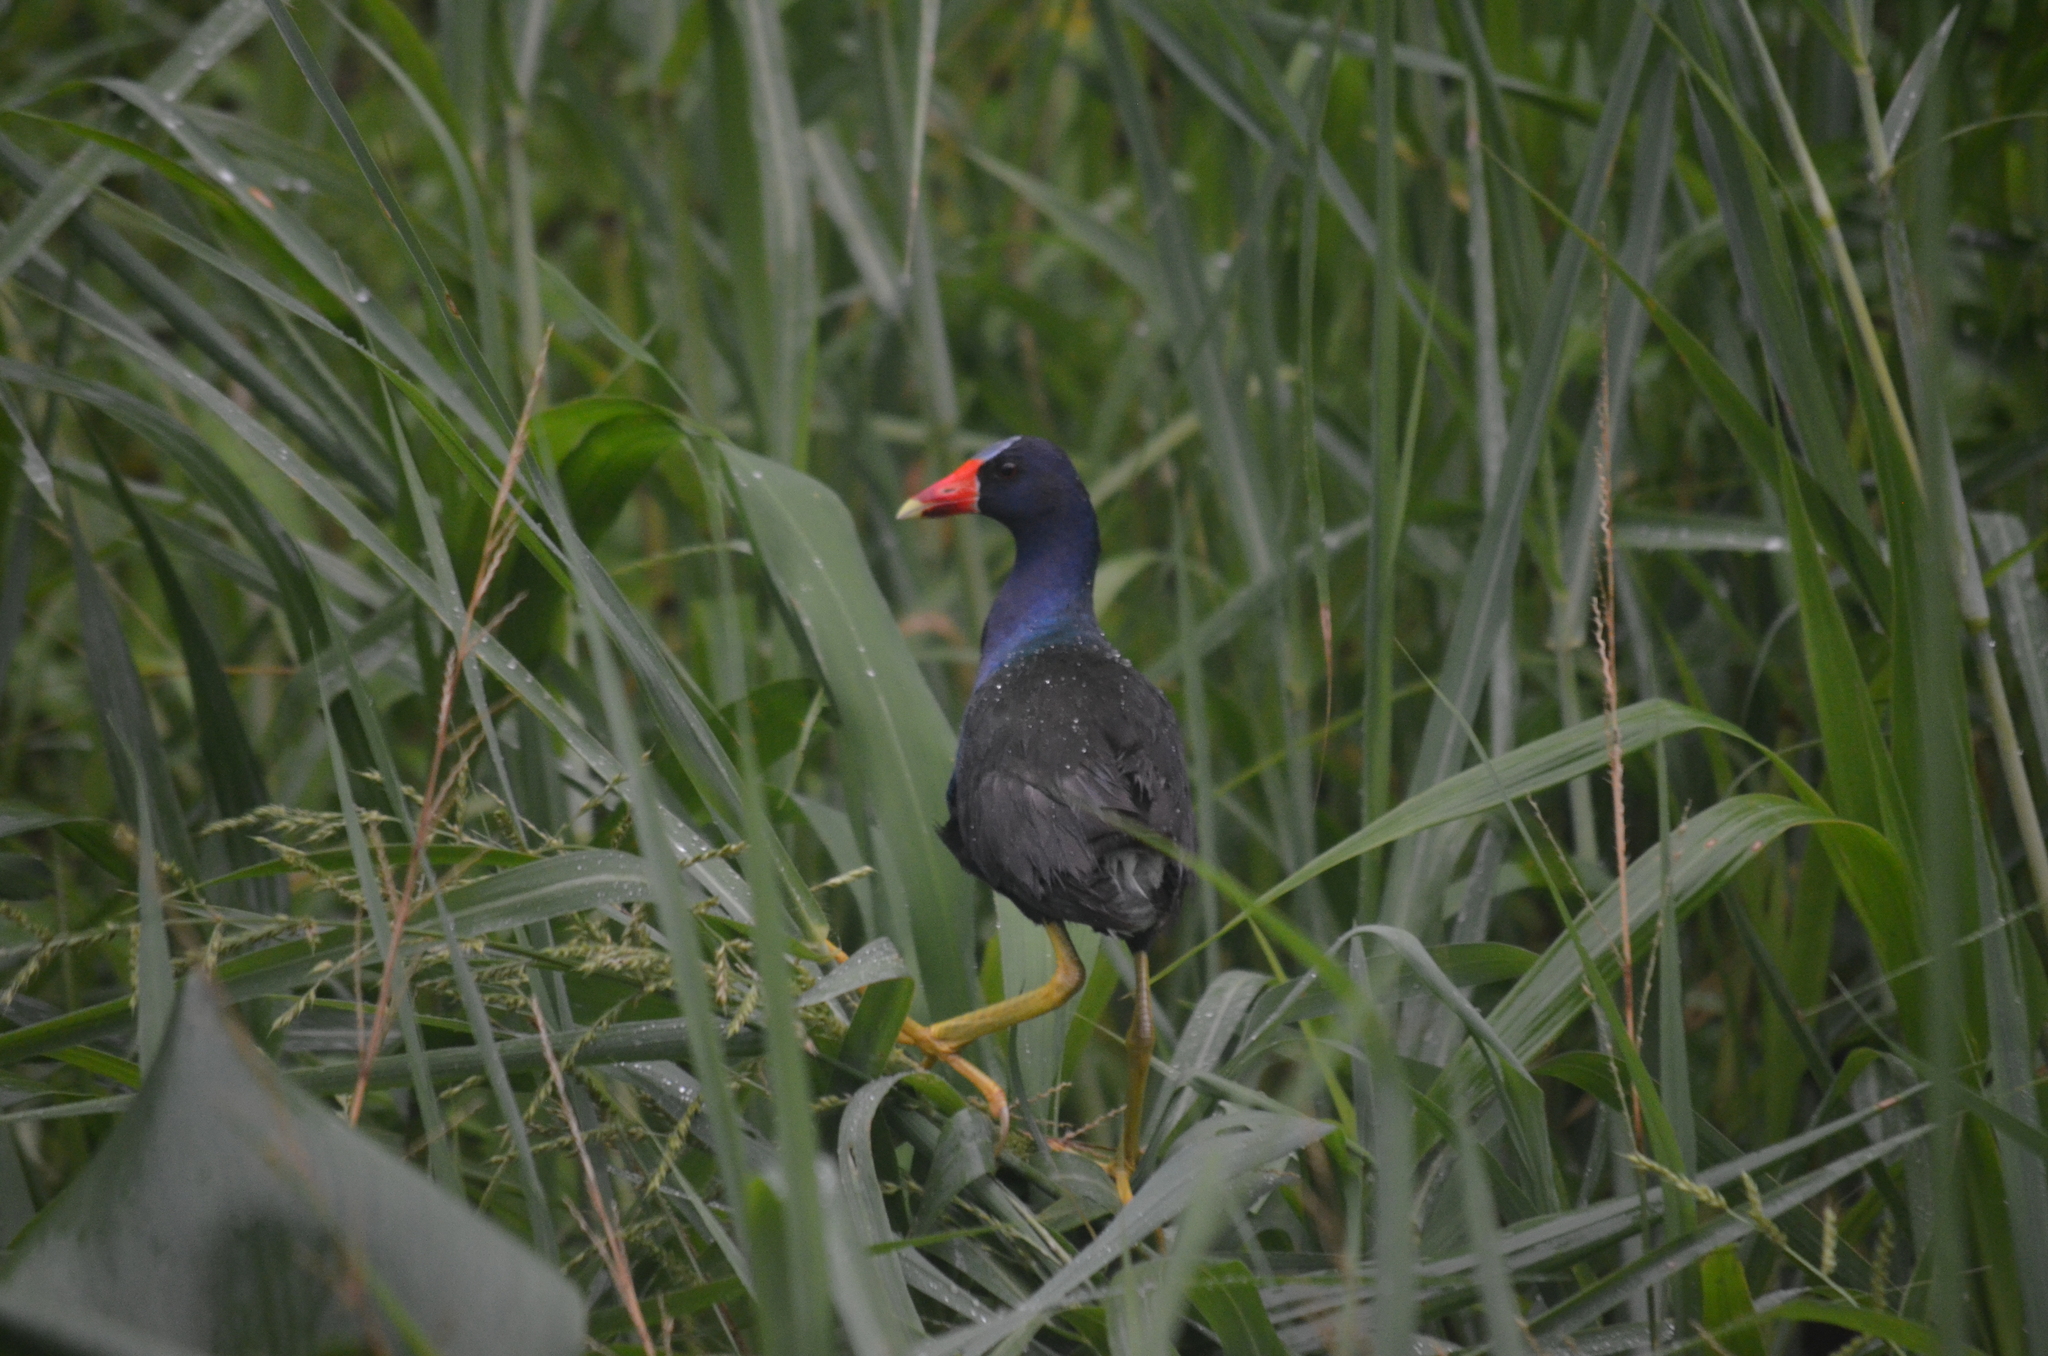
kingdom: Animalia
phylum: Chordata
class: Aves
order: Gruiformes
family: Rallidae
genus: Porphyrio
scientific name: Porphyrio martinica
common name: Purple gallinule
